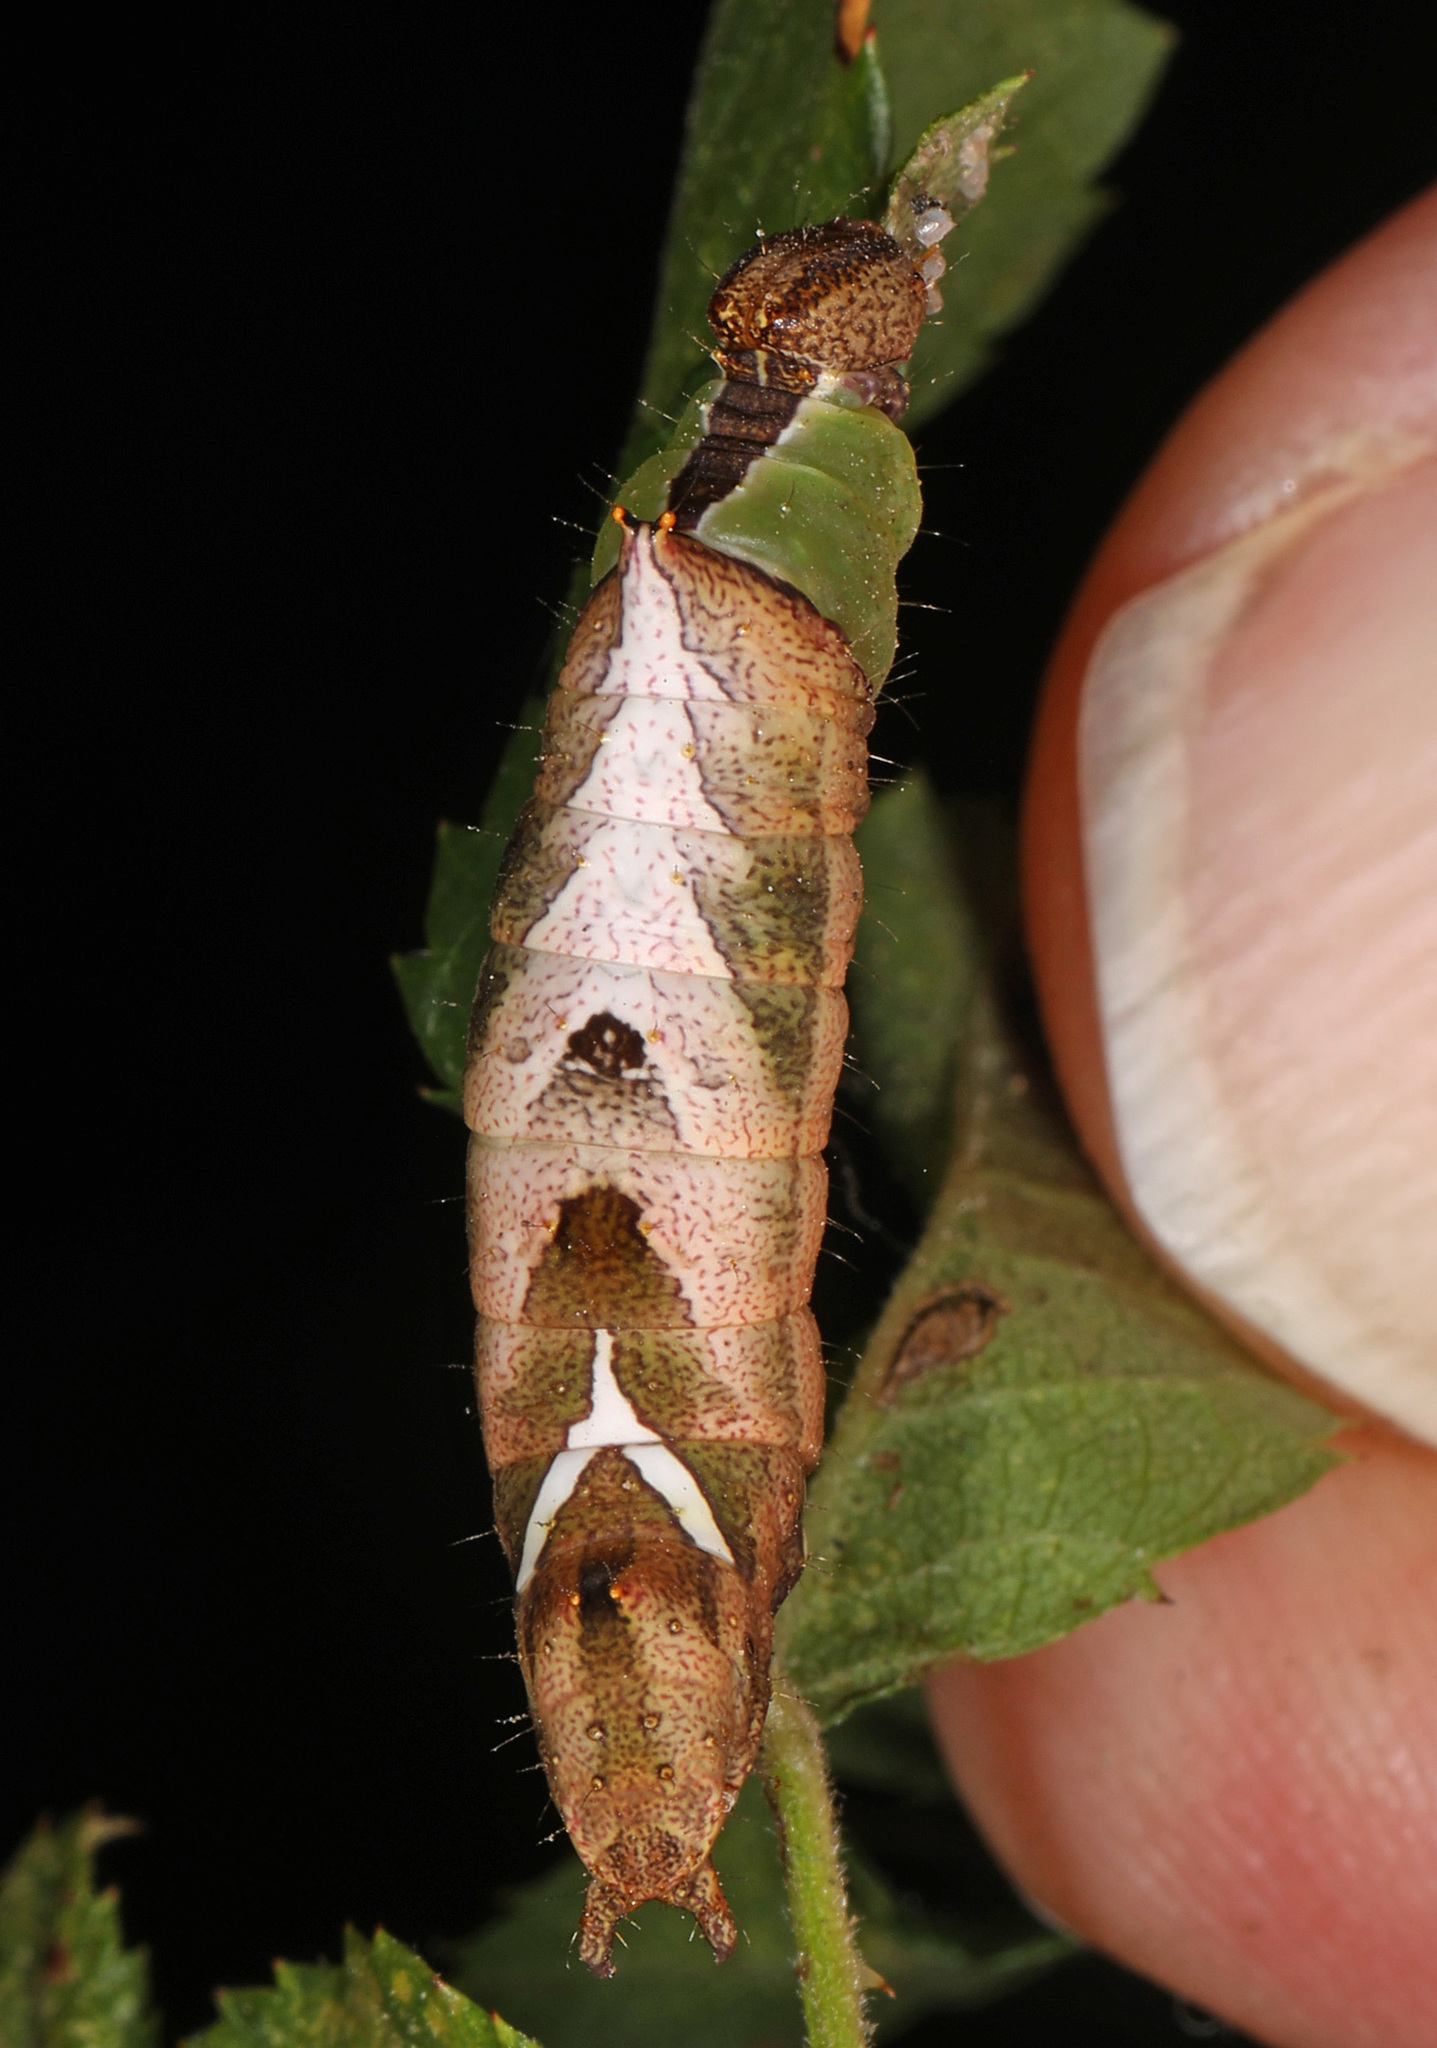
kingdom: Animalia
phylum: Arthropoda
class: Insecta
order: Lepidoptera
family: Notodontidae
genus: Schizura
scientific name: Schizura
